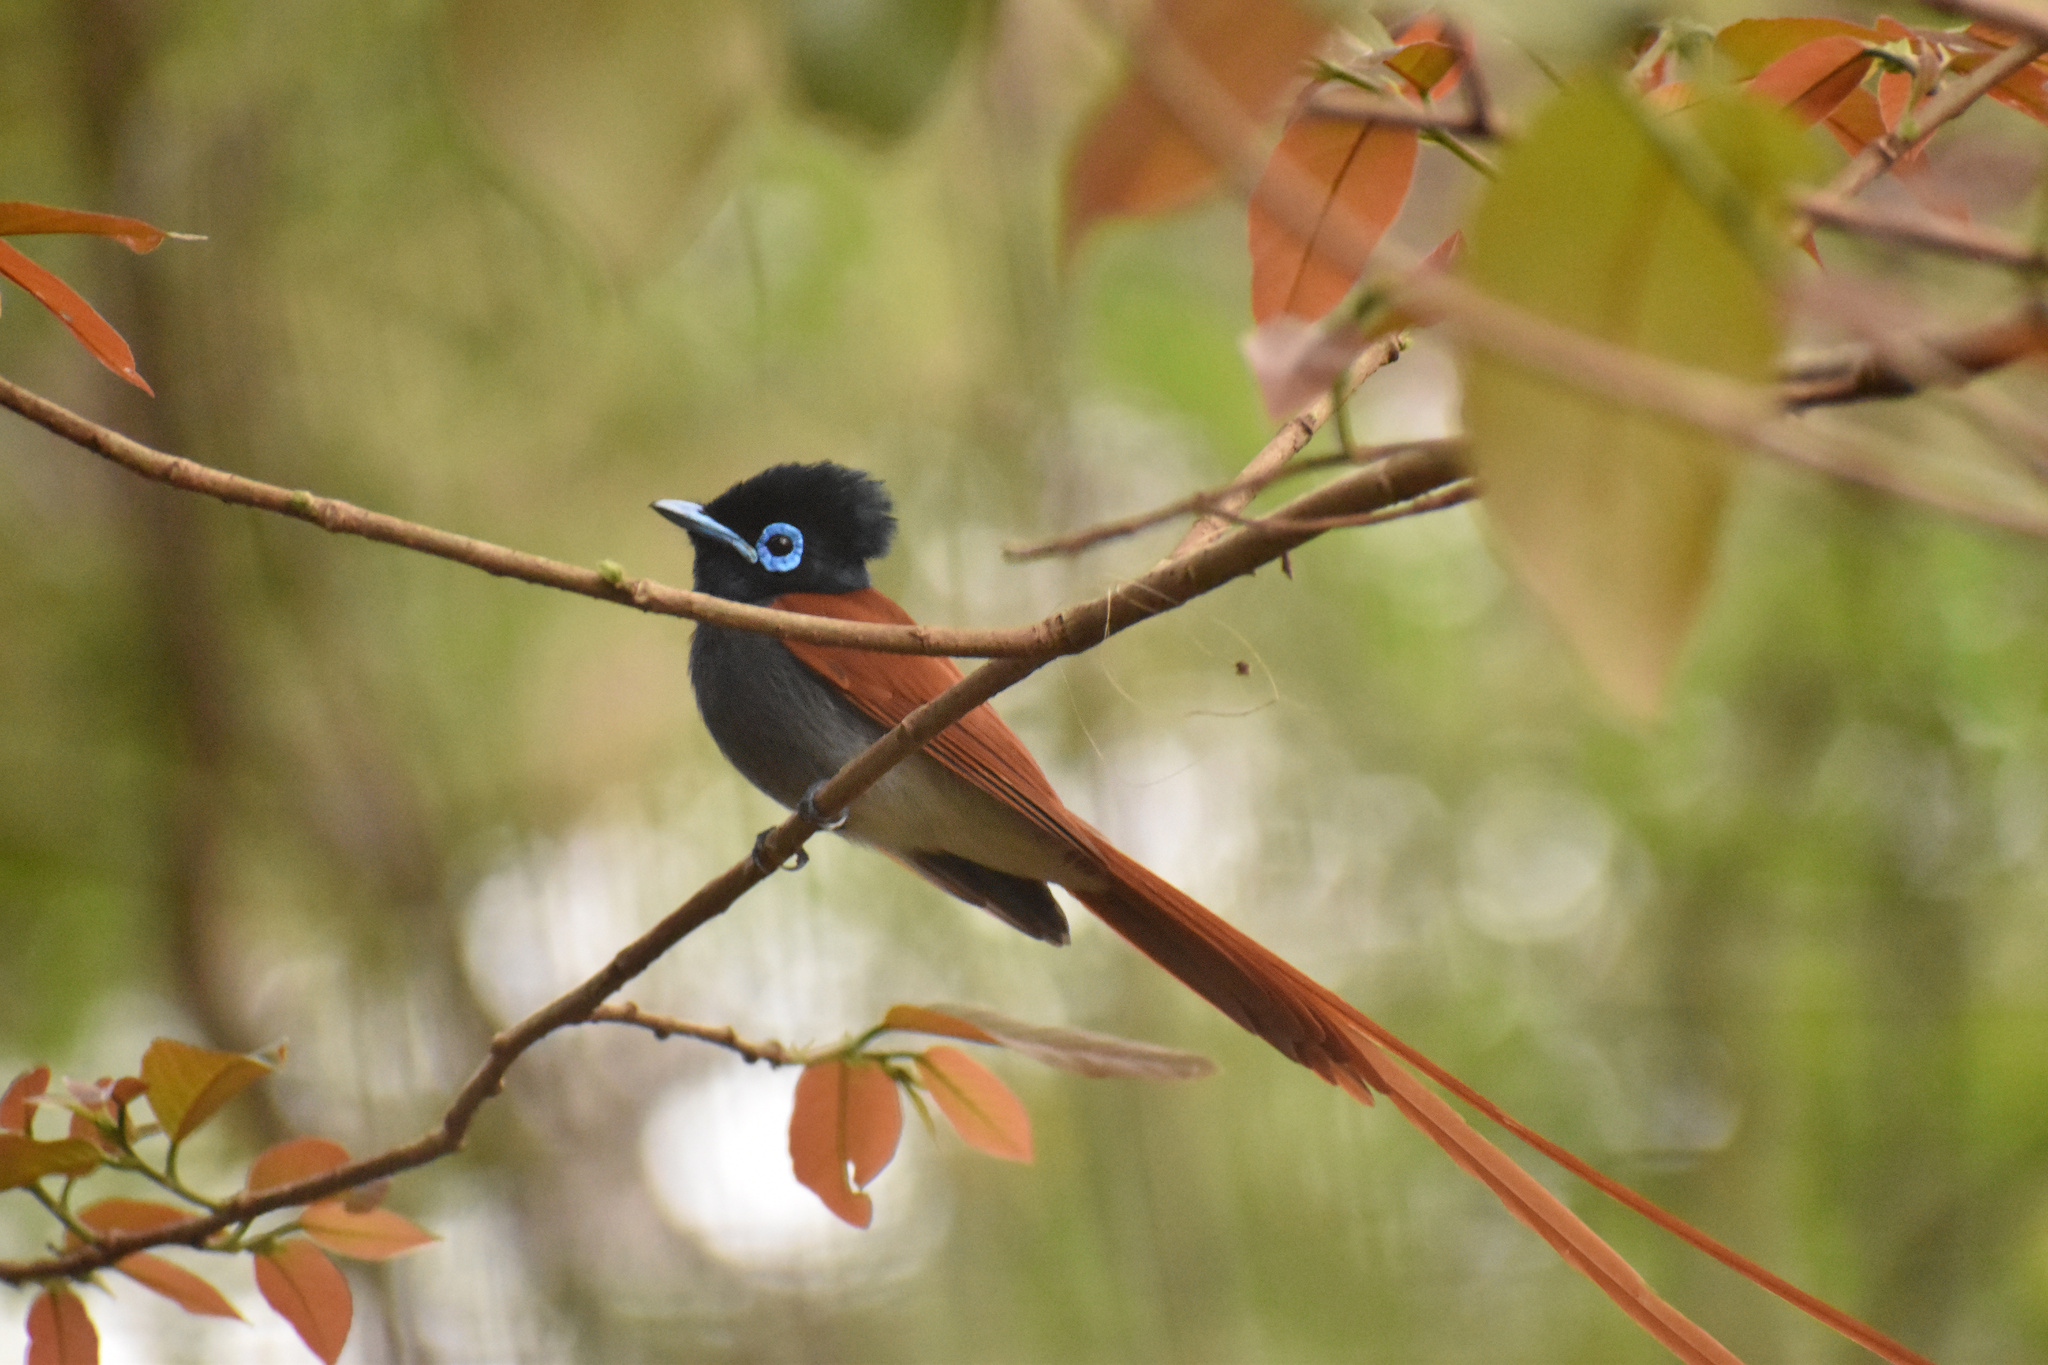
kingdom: Animalia
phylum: Chordata
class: Aves
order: Passeriformes
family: Monarchidae
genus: Terpsiphone
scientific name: Terpsiphone viridis
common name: African paradise flycatcher
